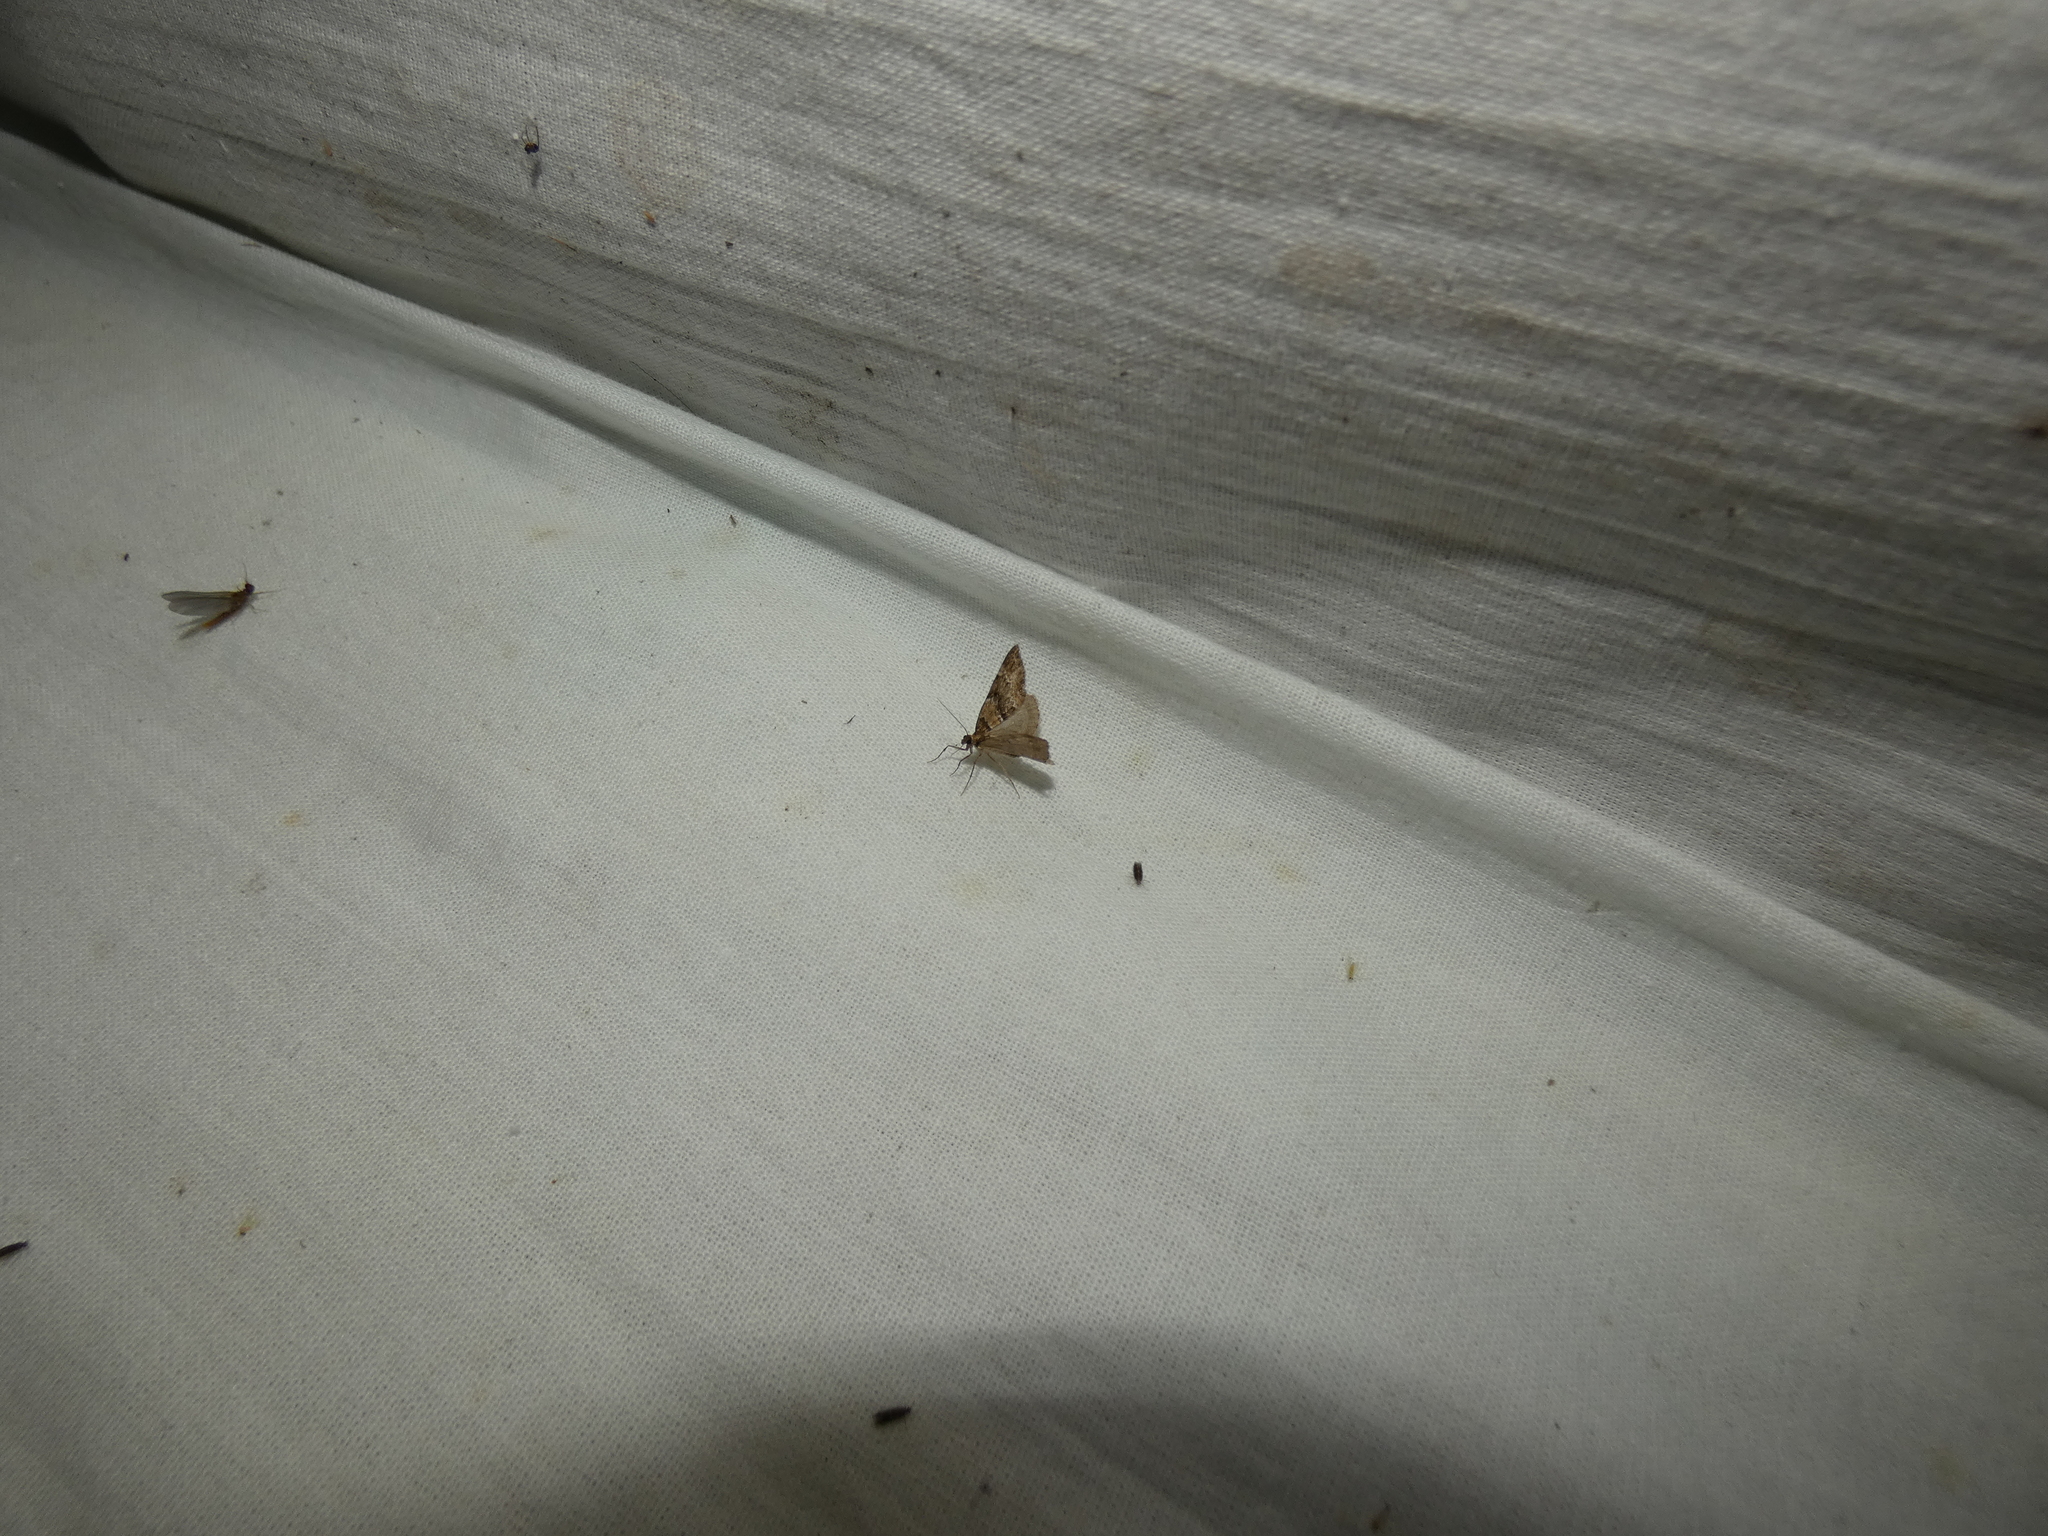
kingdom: Animalia
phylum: Arthropoda
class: Insecta
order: Lepidoptera
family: Geometridae
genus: Perizoma
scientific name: Perizoma taeniata
